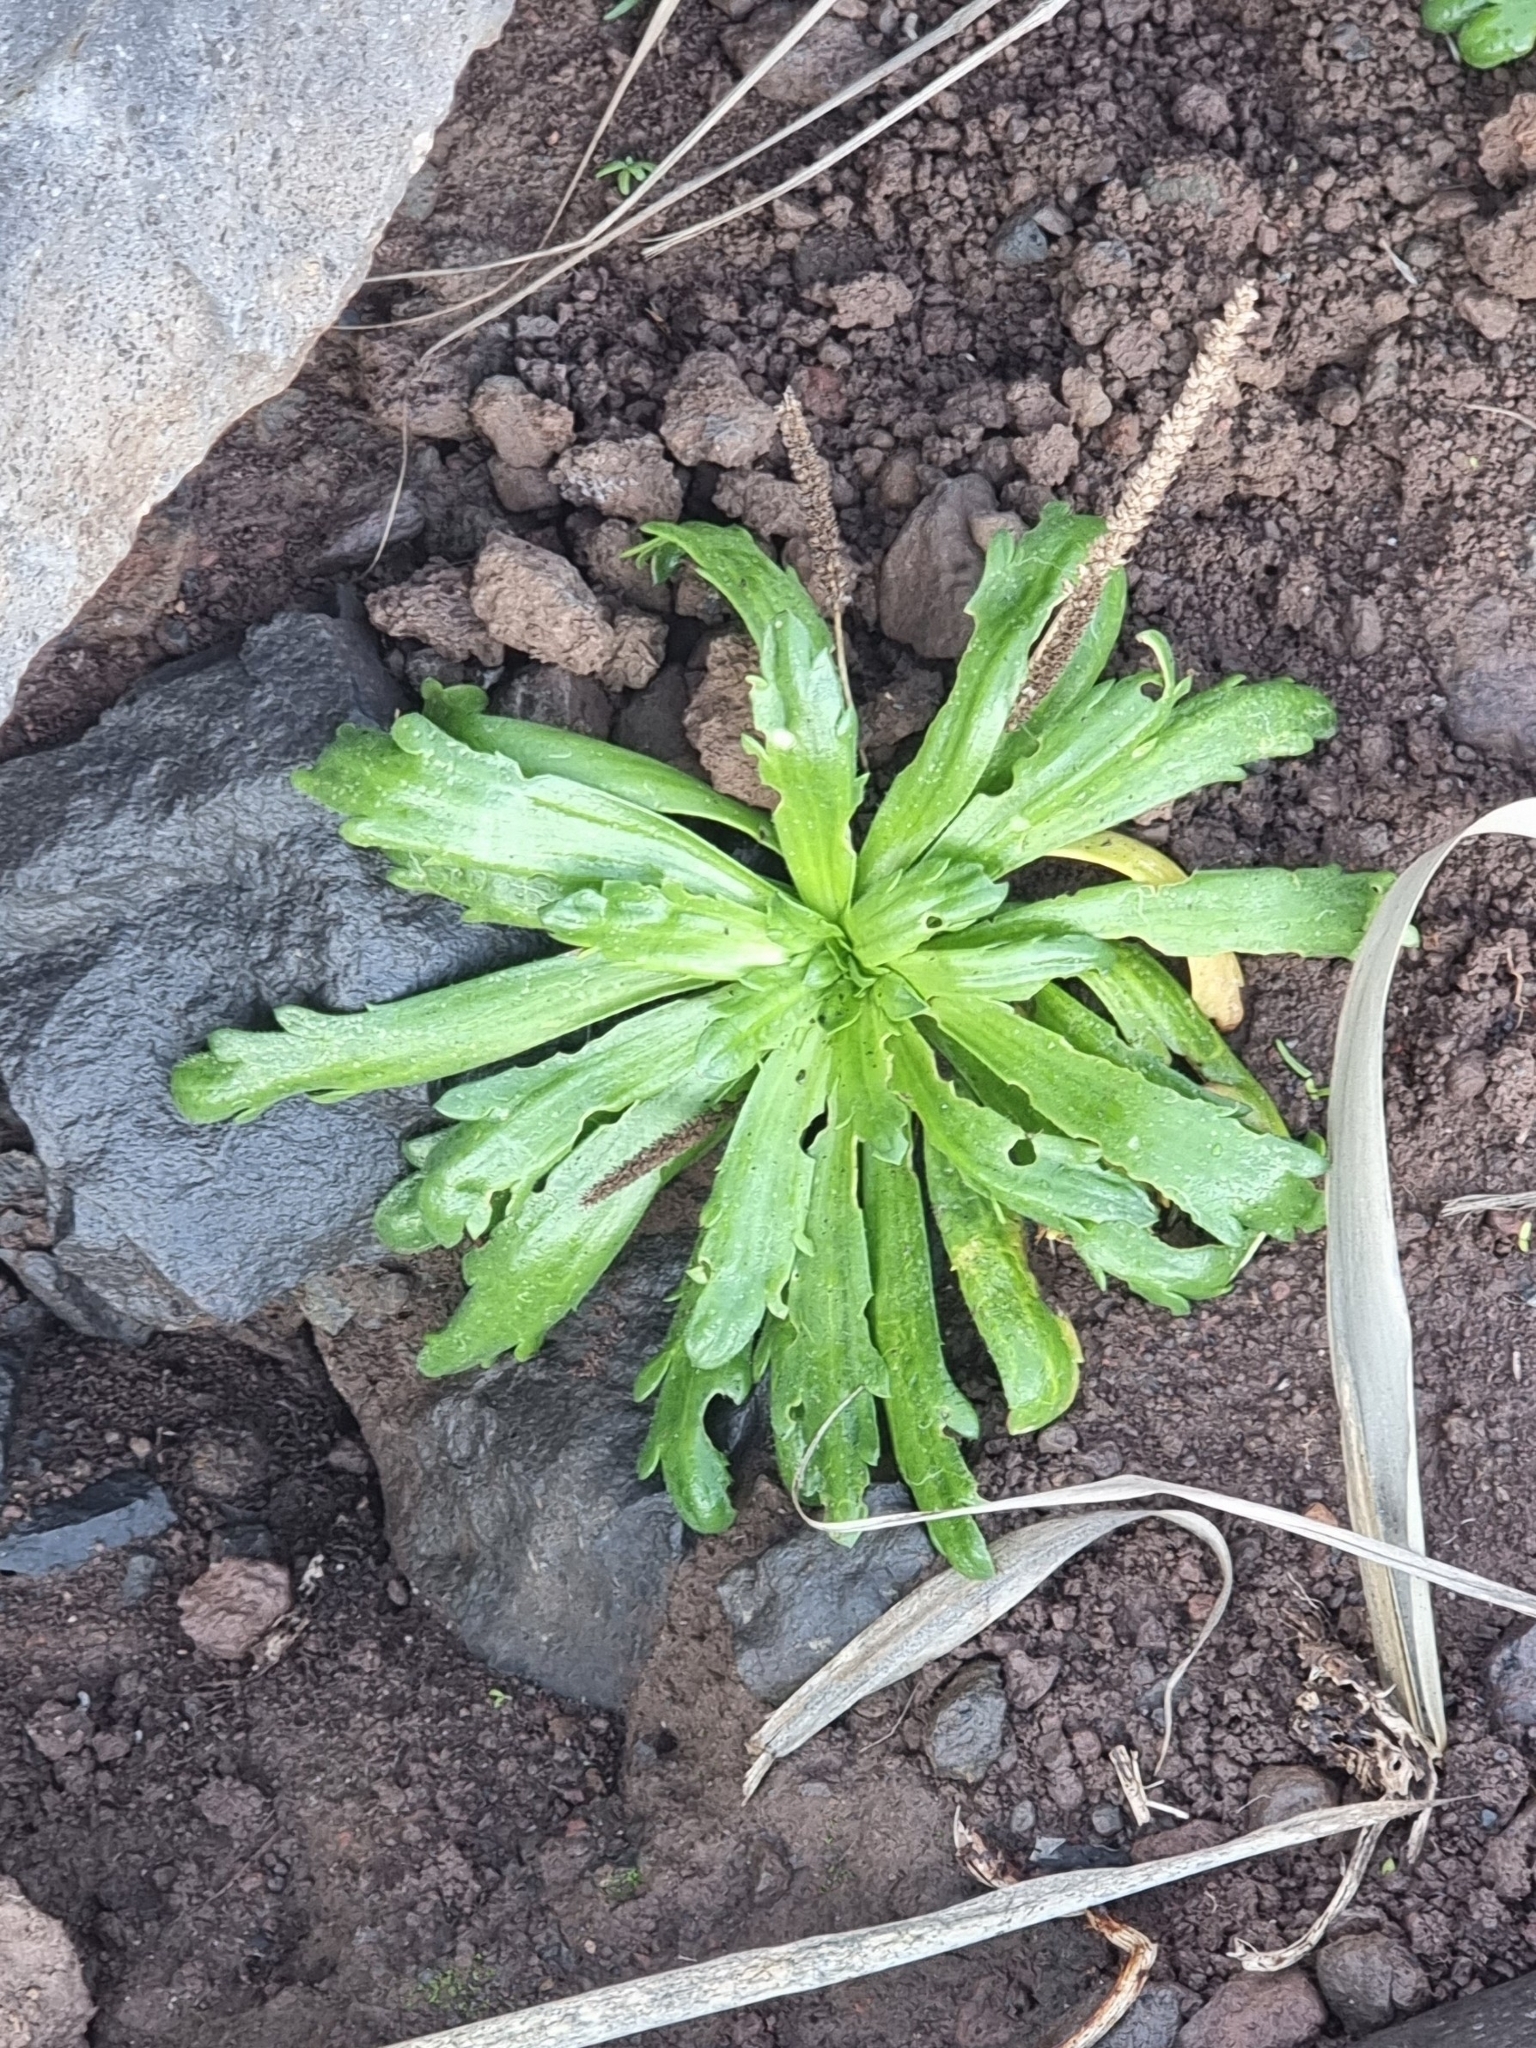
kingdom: Plantae
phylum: Tracheophyta
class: Magnoliopsida
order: Lamiales
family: Plantaginaceae
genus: Plantago
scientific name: Plantago coronopus
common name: Buck's-horn plantain
